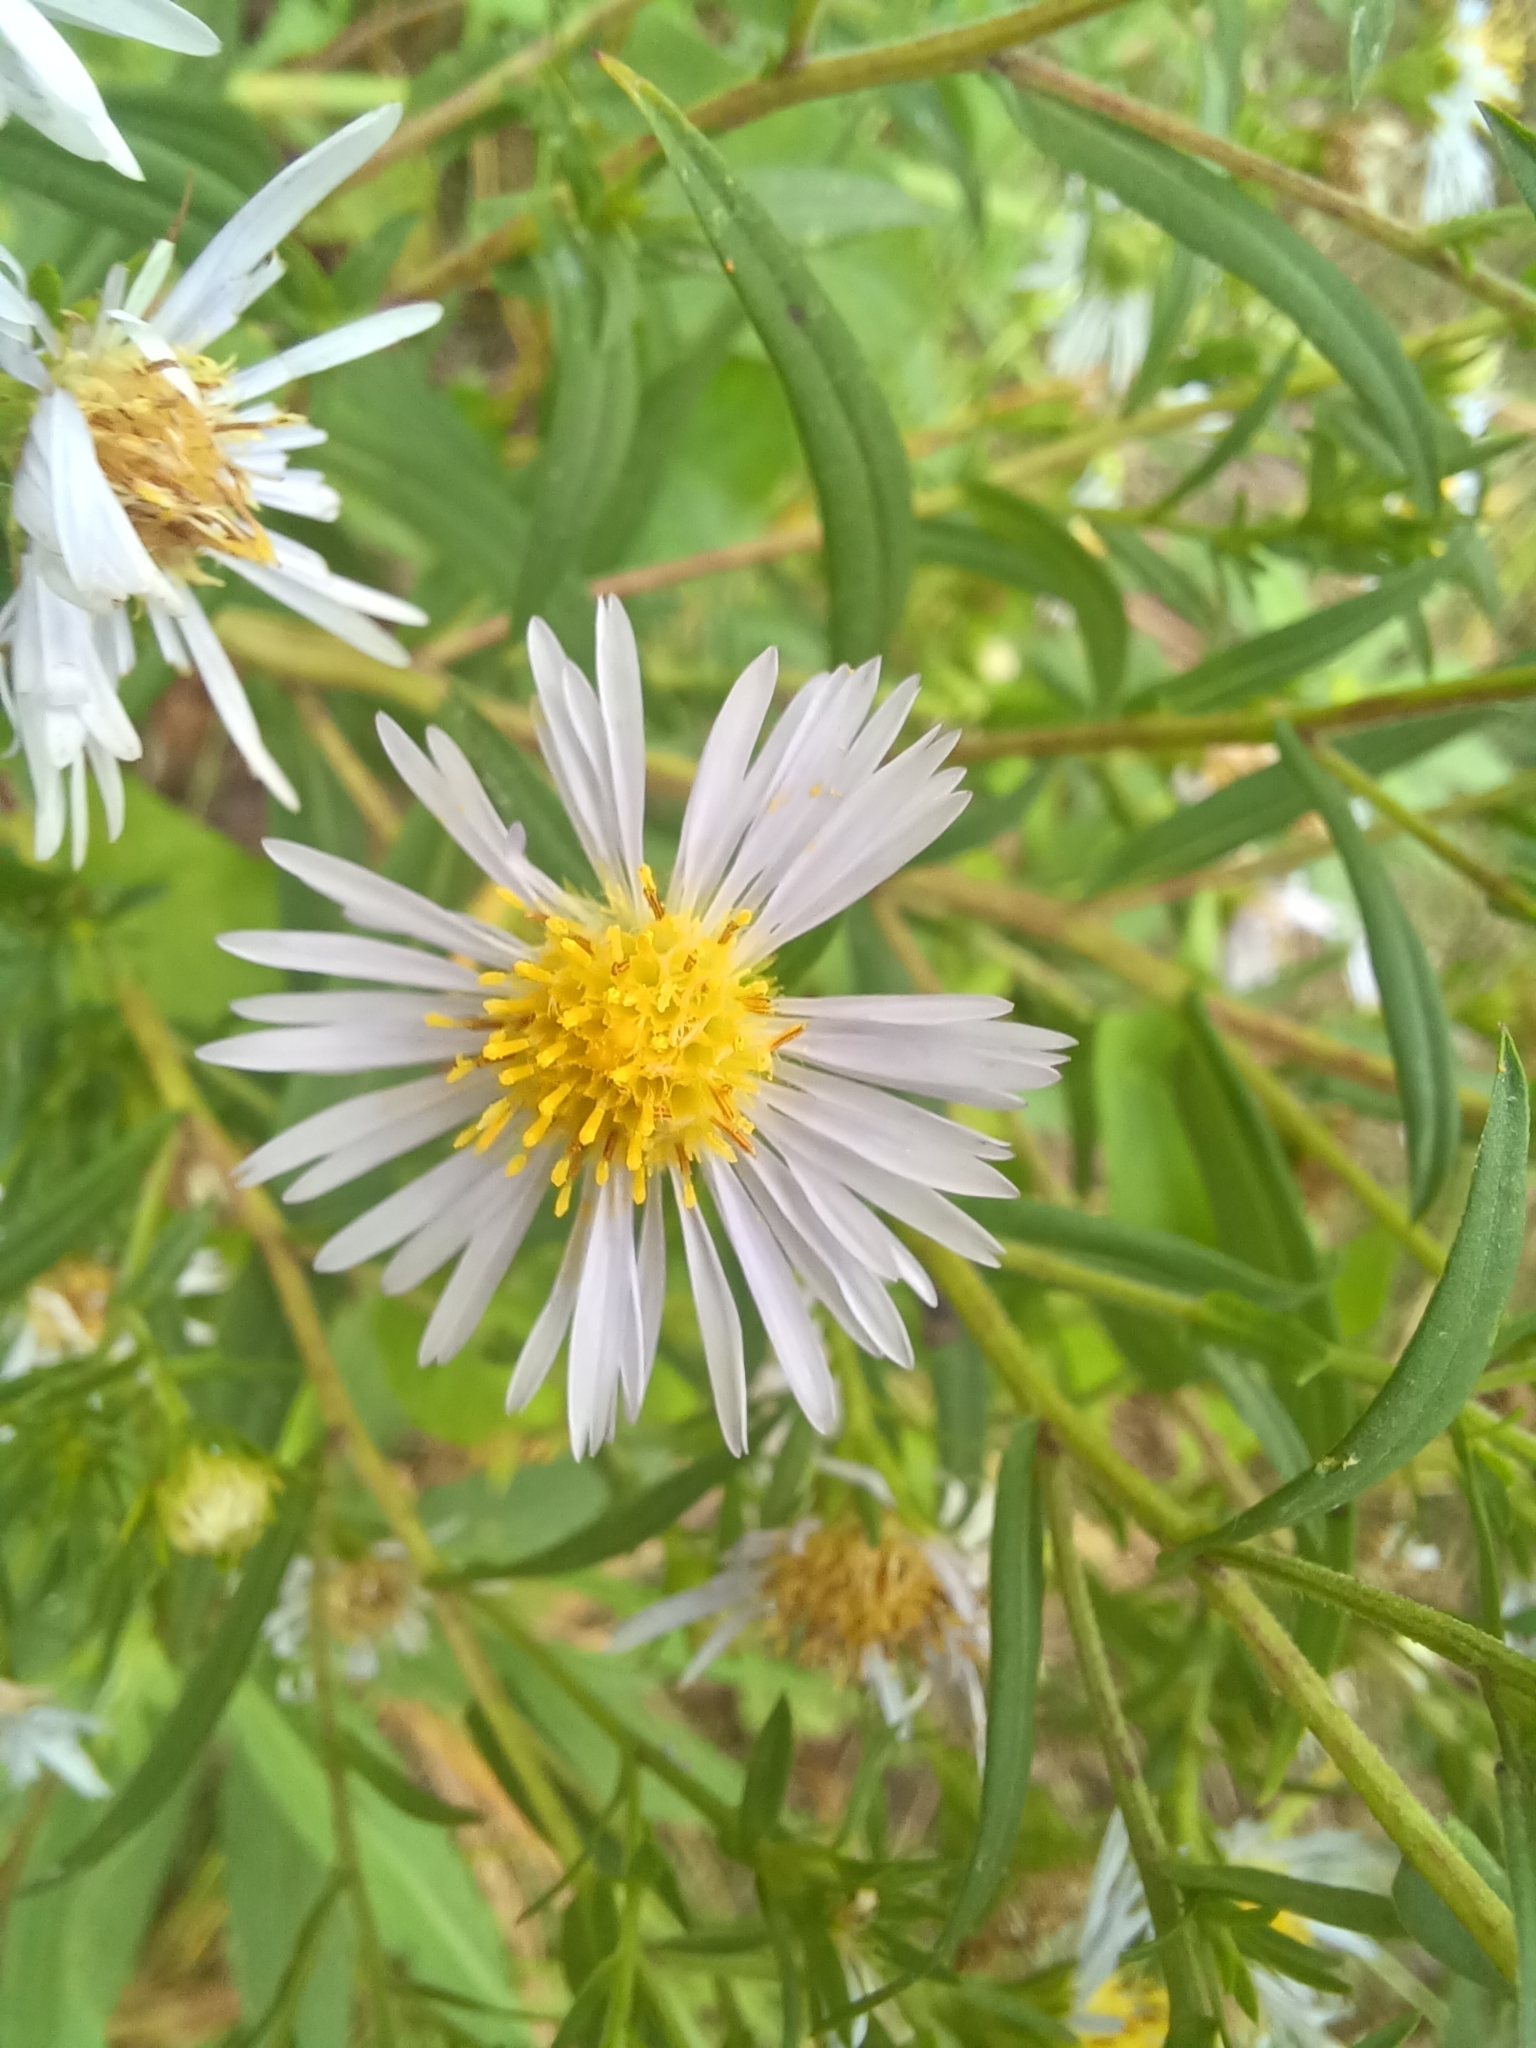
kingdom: Plantae
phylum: Tracheophyta
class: Magnoliopsida
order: Asterales
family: Asteraceae
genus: Symphyotrichum
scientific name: Symphyotrichum firmum
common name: Shining aster
